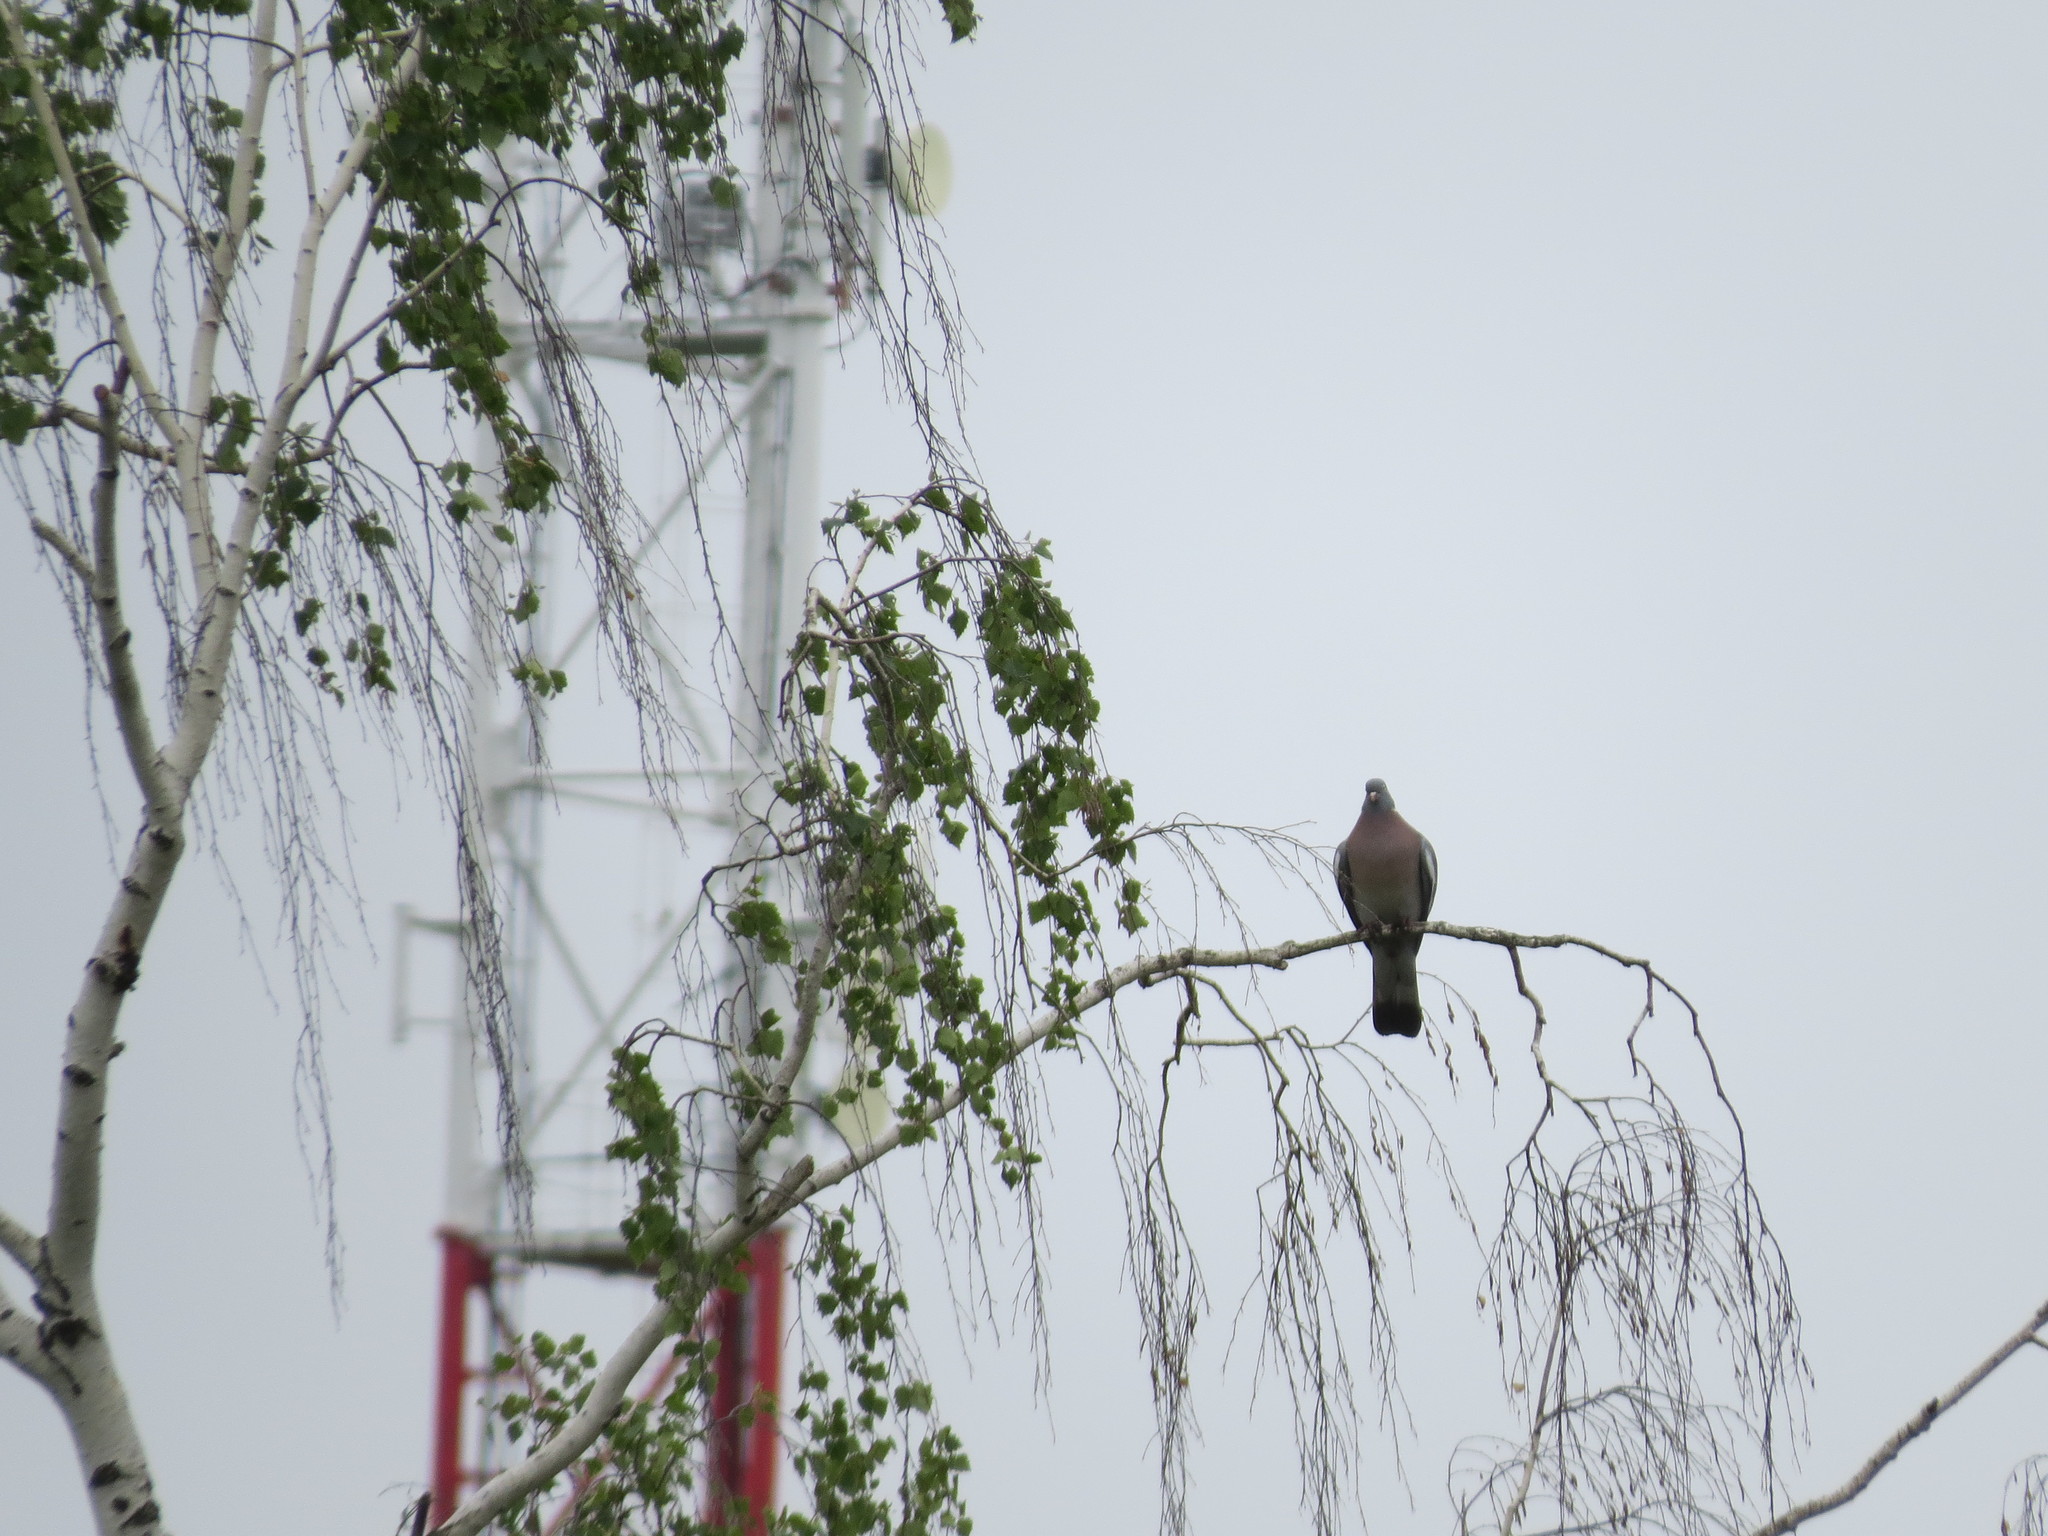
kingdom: Animalia
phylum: Chordata
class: Aves
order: Columbiformes
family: Columbidae
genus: Columba
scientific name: Columba palumbus
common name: Common wood pigeon
